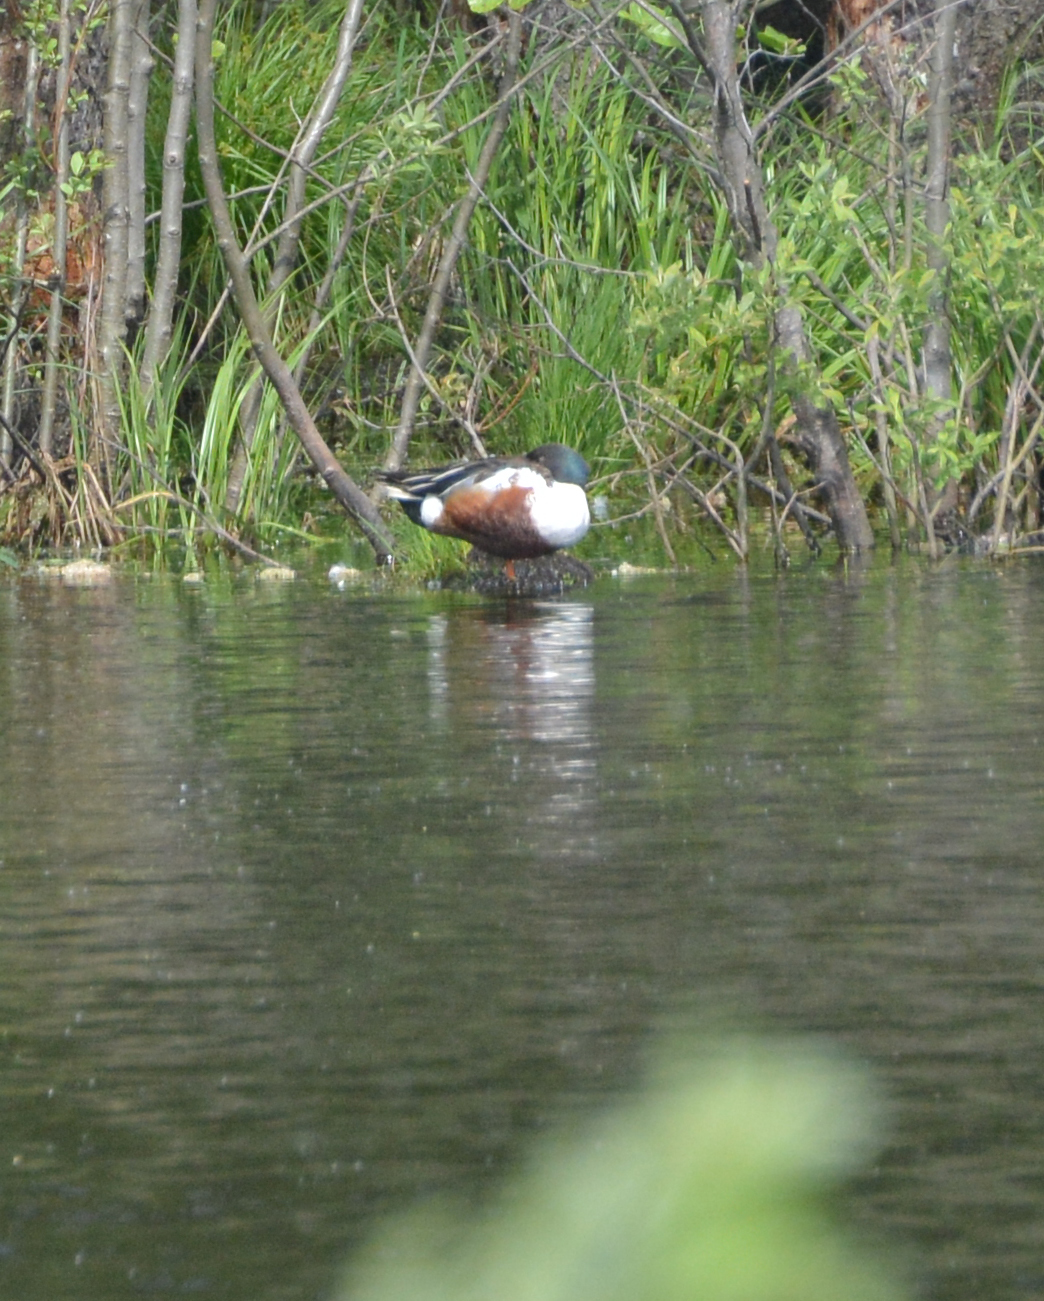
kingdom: Animalia
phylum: Chordata
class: Aves
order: Anseriformes
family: Anatidae
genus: Spatula
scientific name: Spatula clypeata
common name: Northern shoveler
